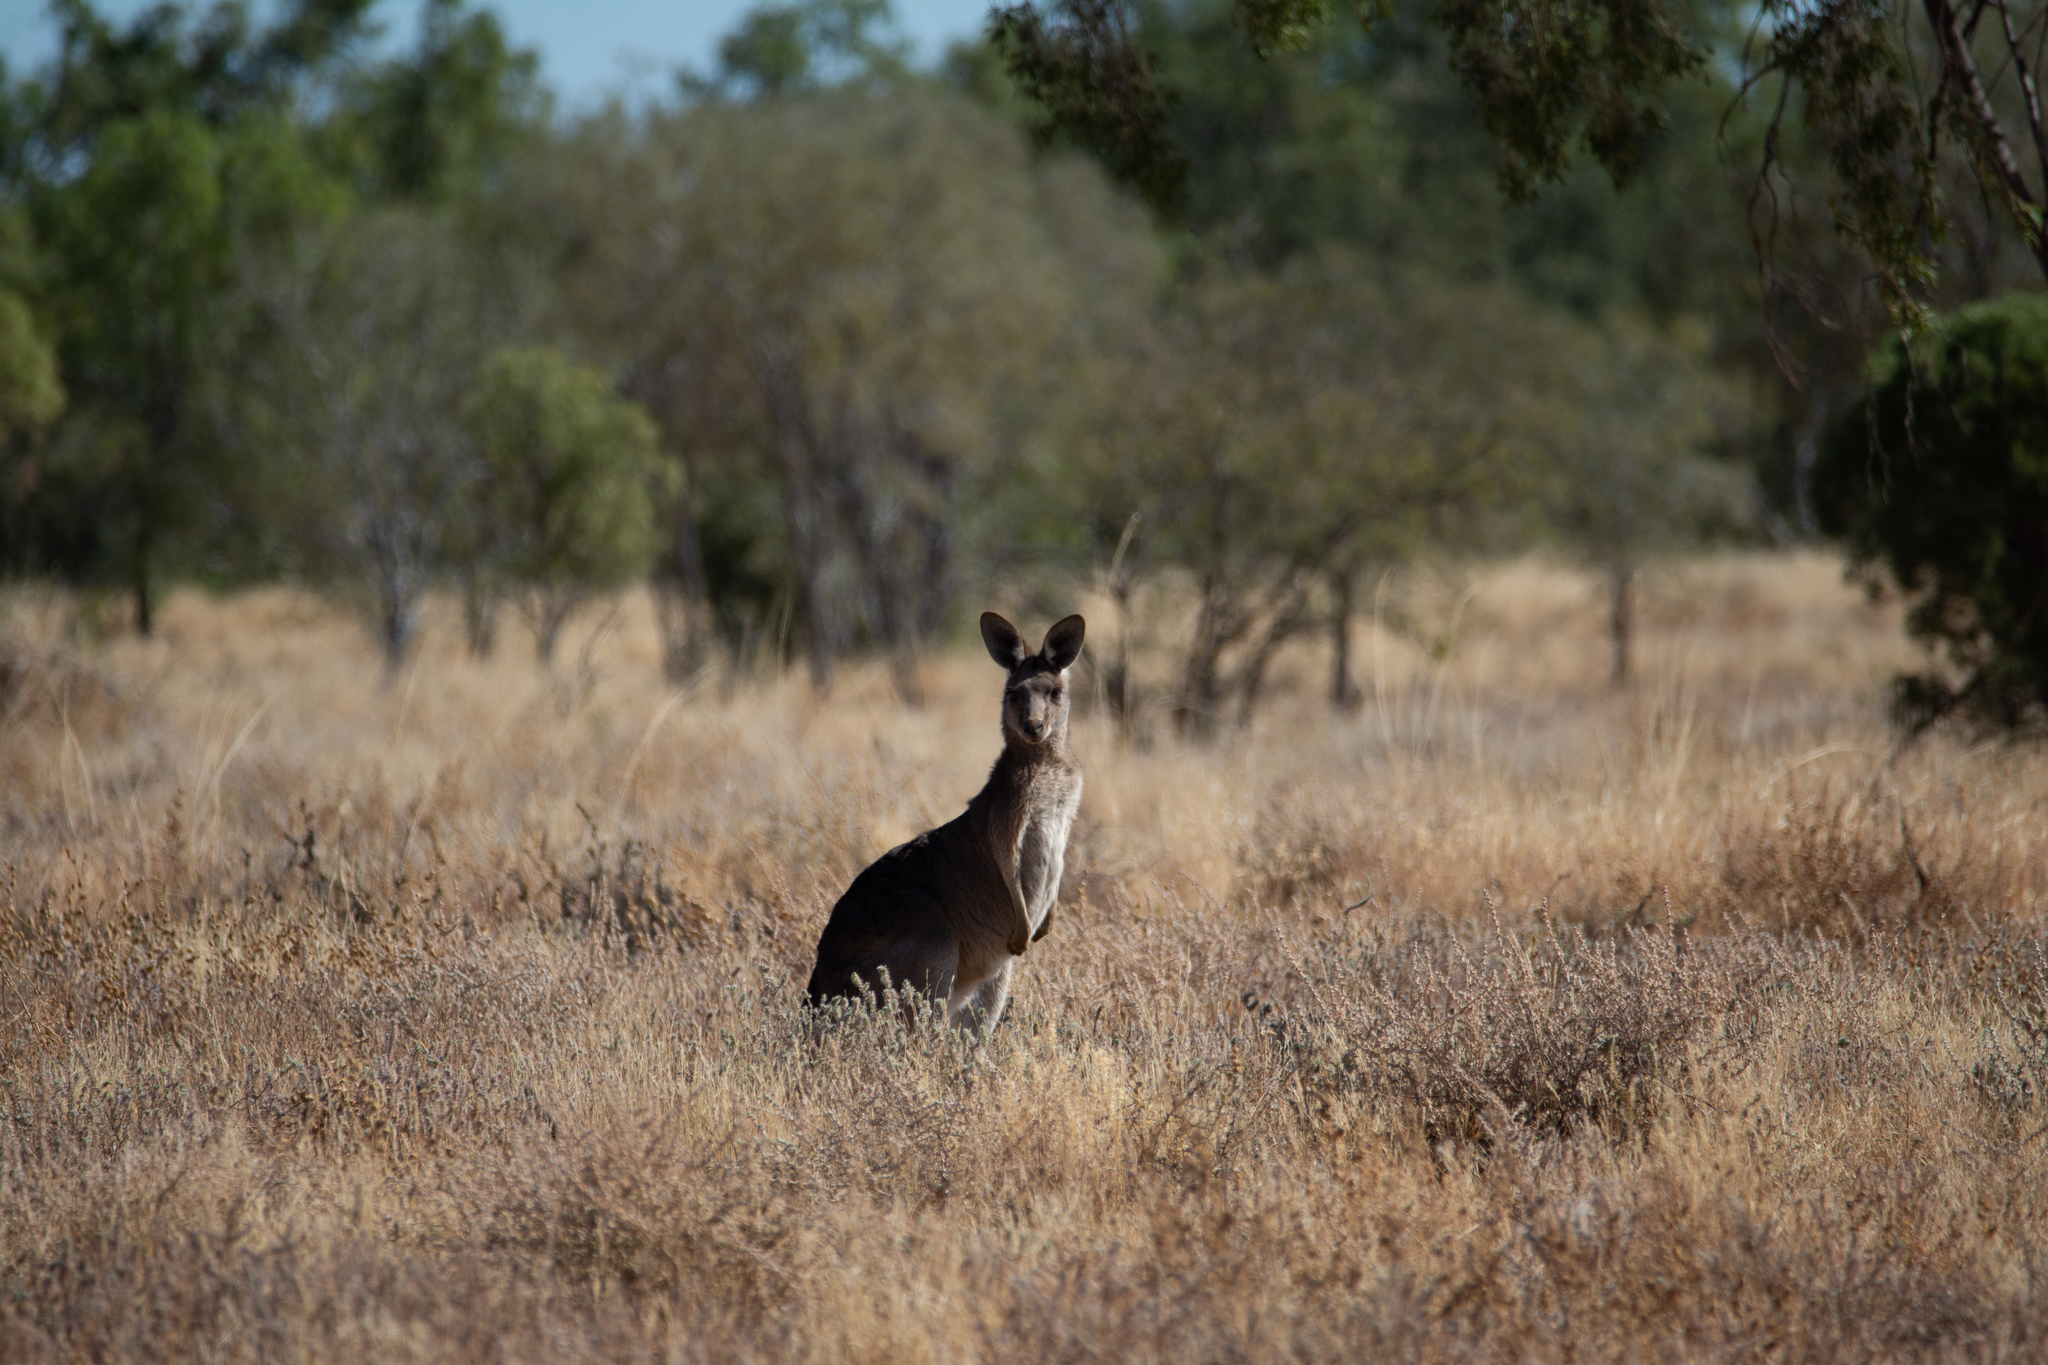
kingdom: Animalia
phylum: Chordata
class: Mammalia
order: Diprotodontia
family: Macropodidae
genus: Macropus
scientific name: Macropus giganteus
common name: Eastern grey kangaroo
